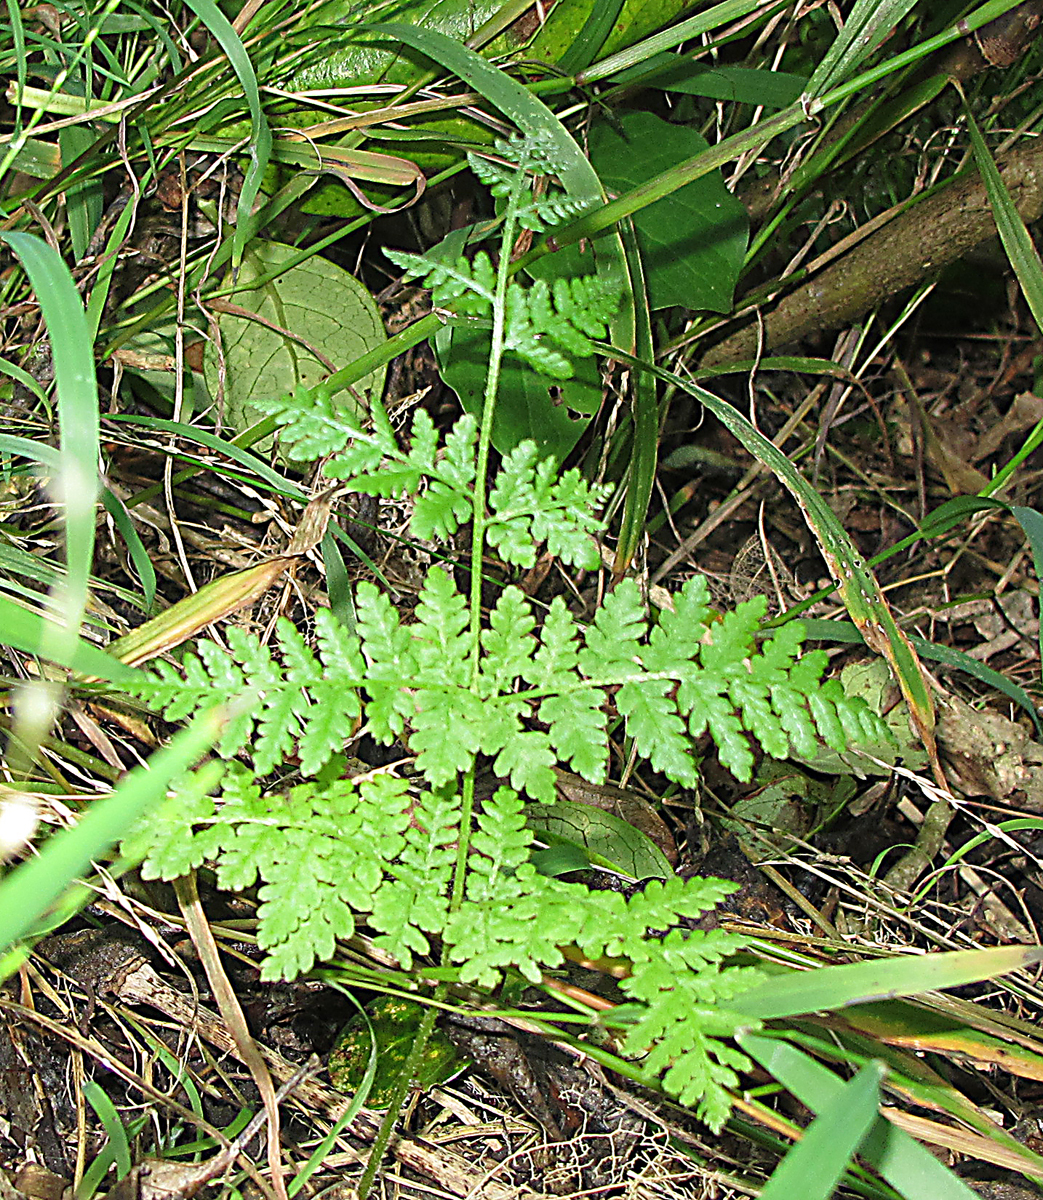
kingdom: Plantae
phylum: Tracheophyta
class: Polypodiopsida
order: Polypodiales
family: Dennstaedtiaceae
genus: Hypolepis
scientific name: Hypolepis ambigua
